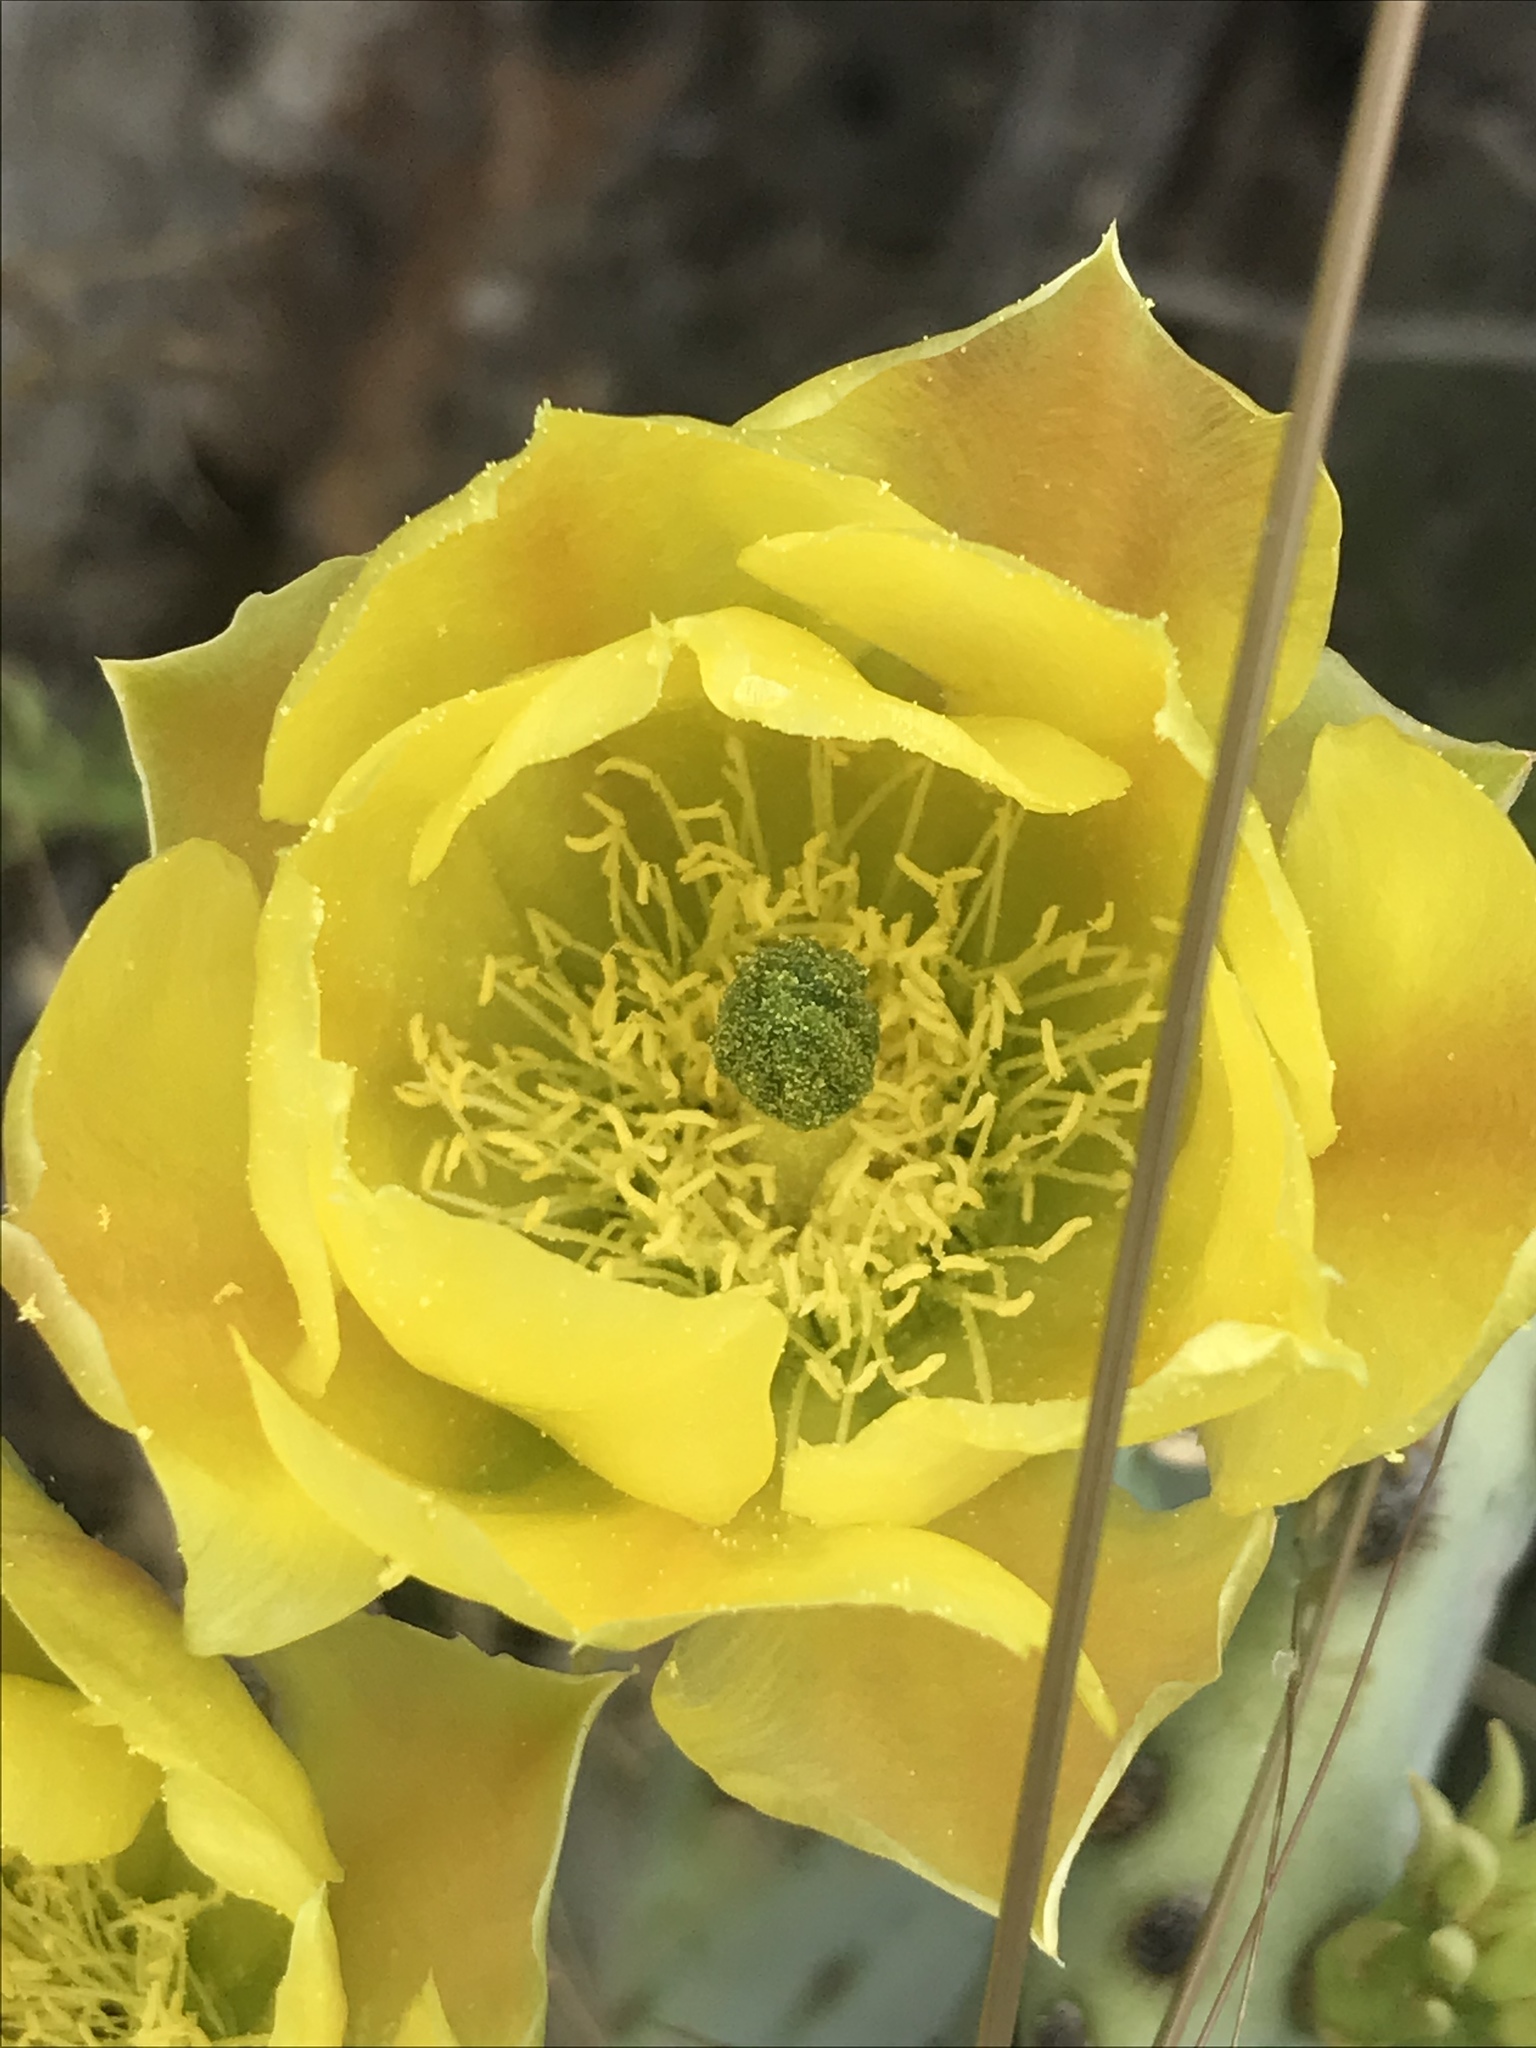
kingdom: Plantae
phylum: Tracheophyta
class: Magnoliopsida
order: Caryophyllales
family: Cactaceae
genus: Opuntia
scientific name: Opuntia engelmannii
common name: Cactus-apple
